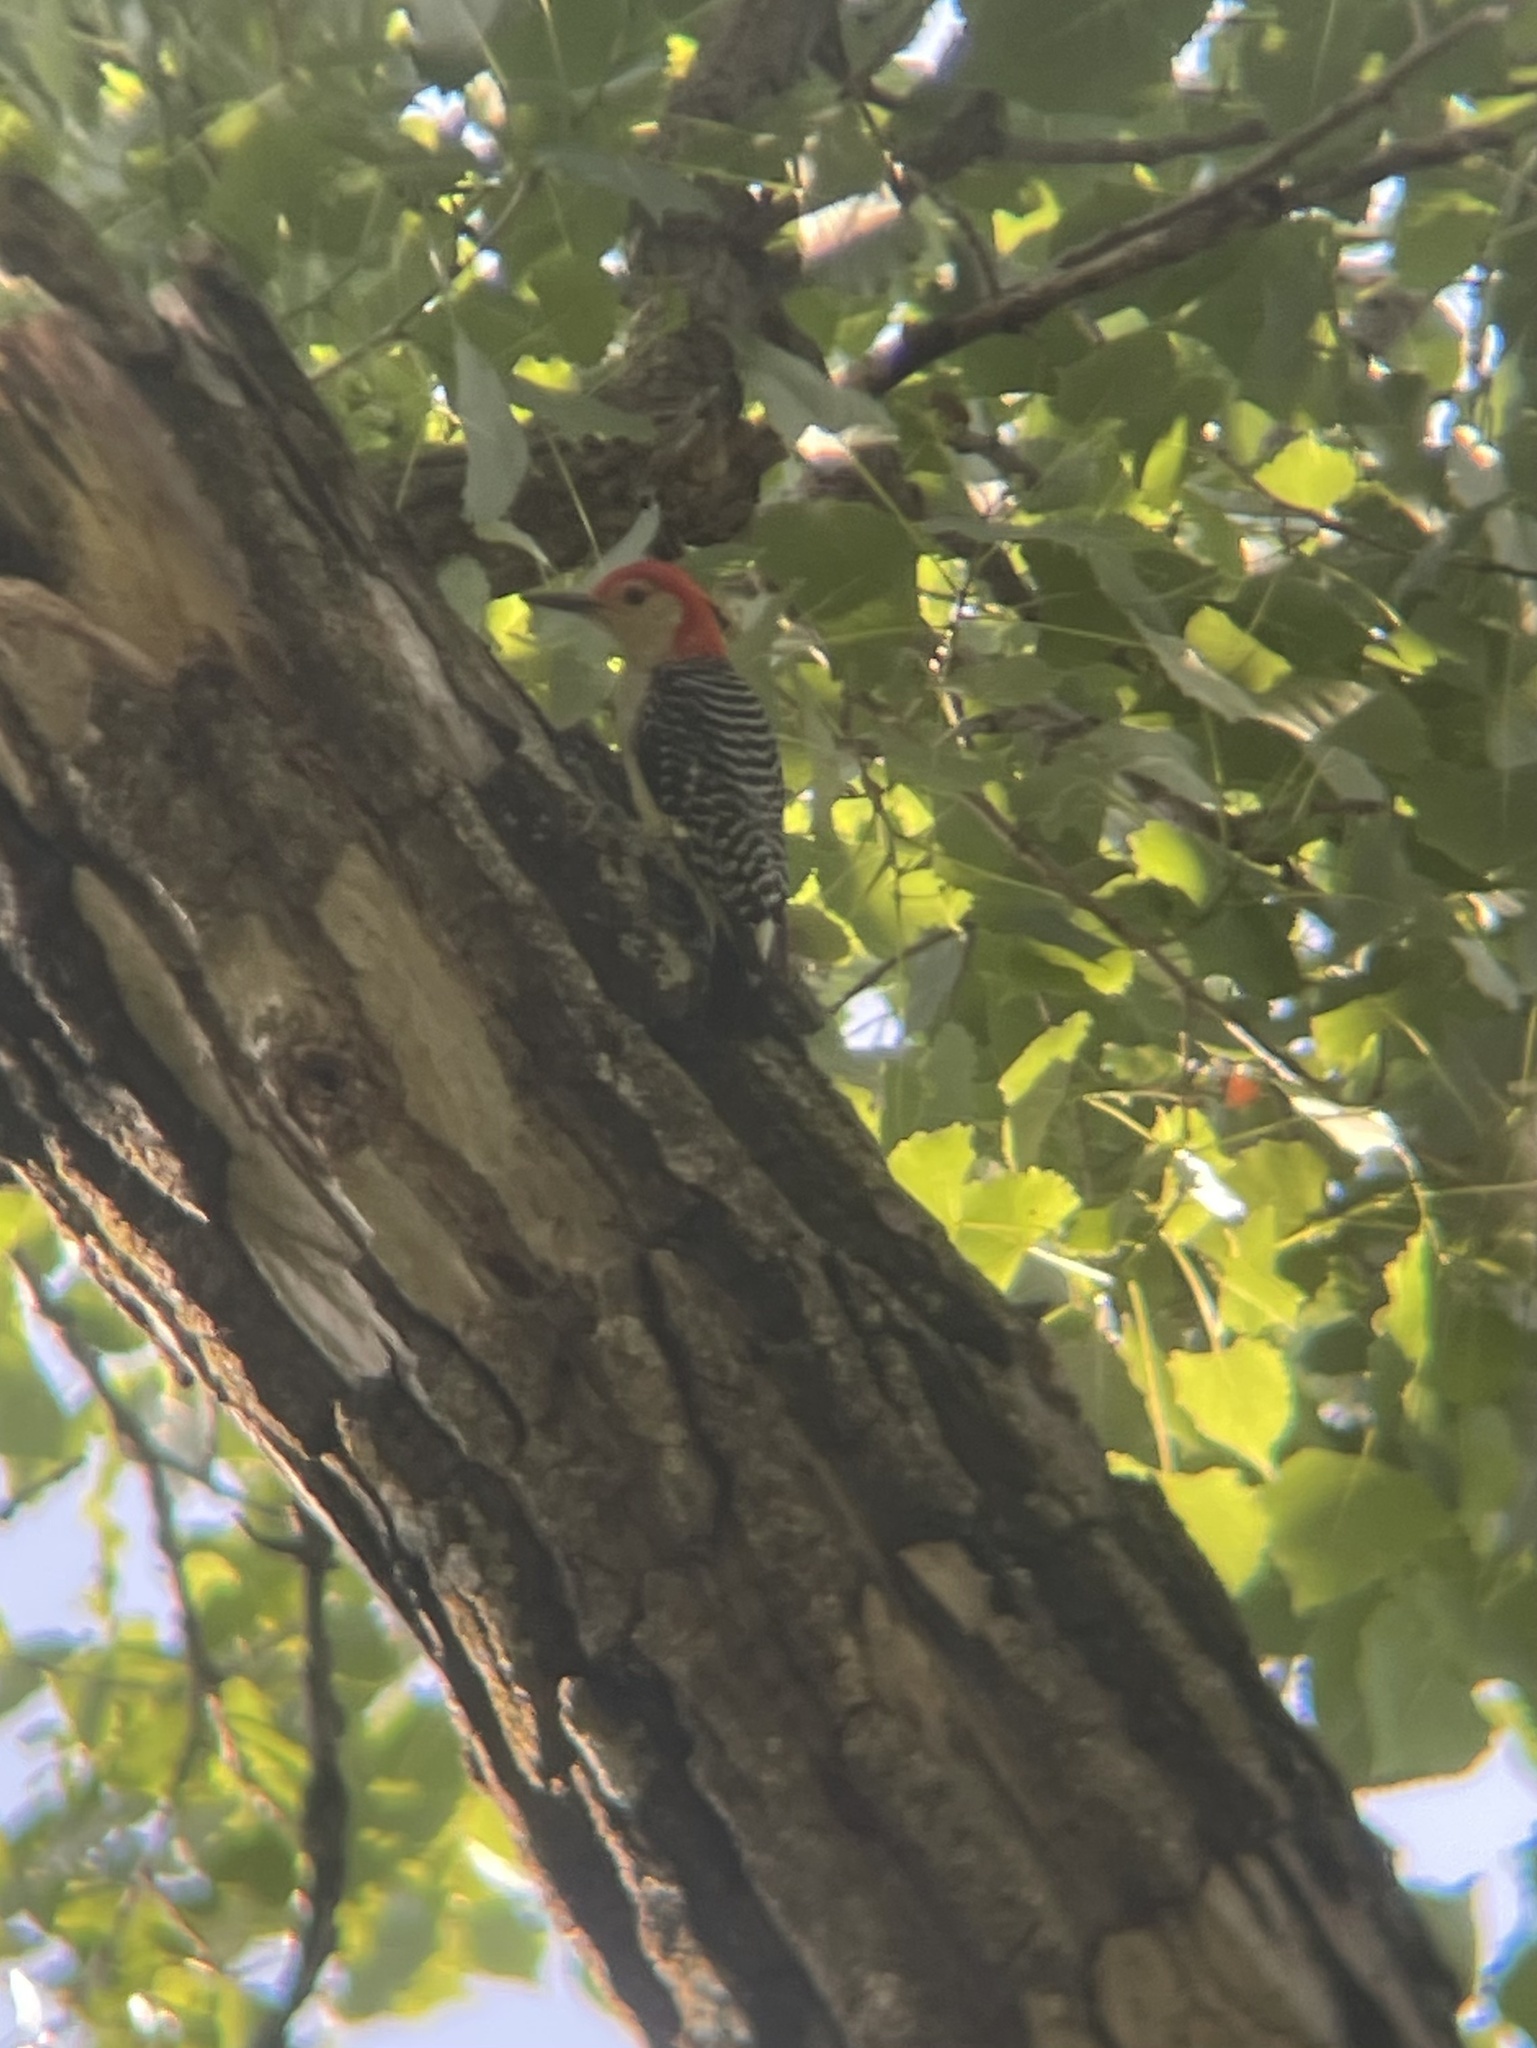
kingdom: Animalia
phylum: Chordata
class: Aves
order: Piciformes
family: Picidae
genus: Melanerpes
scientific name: Melanerpes carolinus
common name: Red-bellied woodpecker
